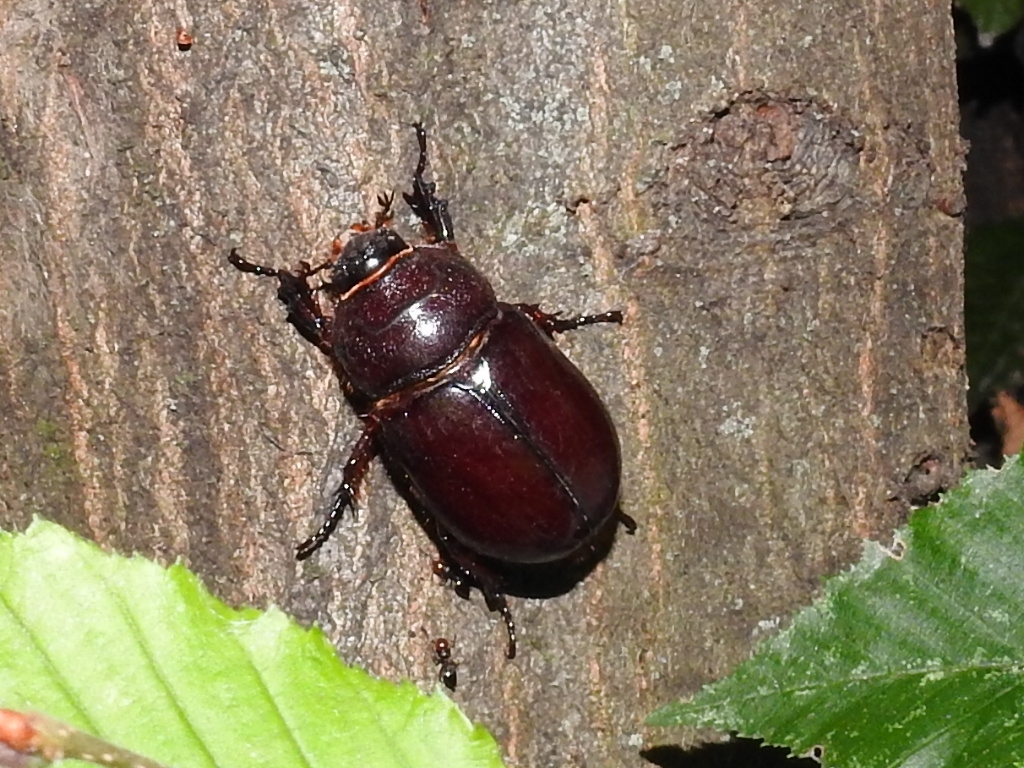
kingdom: Animalia
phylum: Arthropoda
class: Insecta
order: Coleoptera
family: Scarabaeidae
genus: Oryctes
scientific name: Oryctes nasicornis
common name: European rhinoceros beetle
